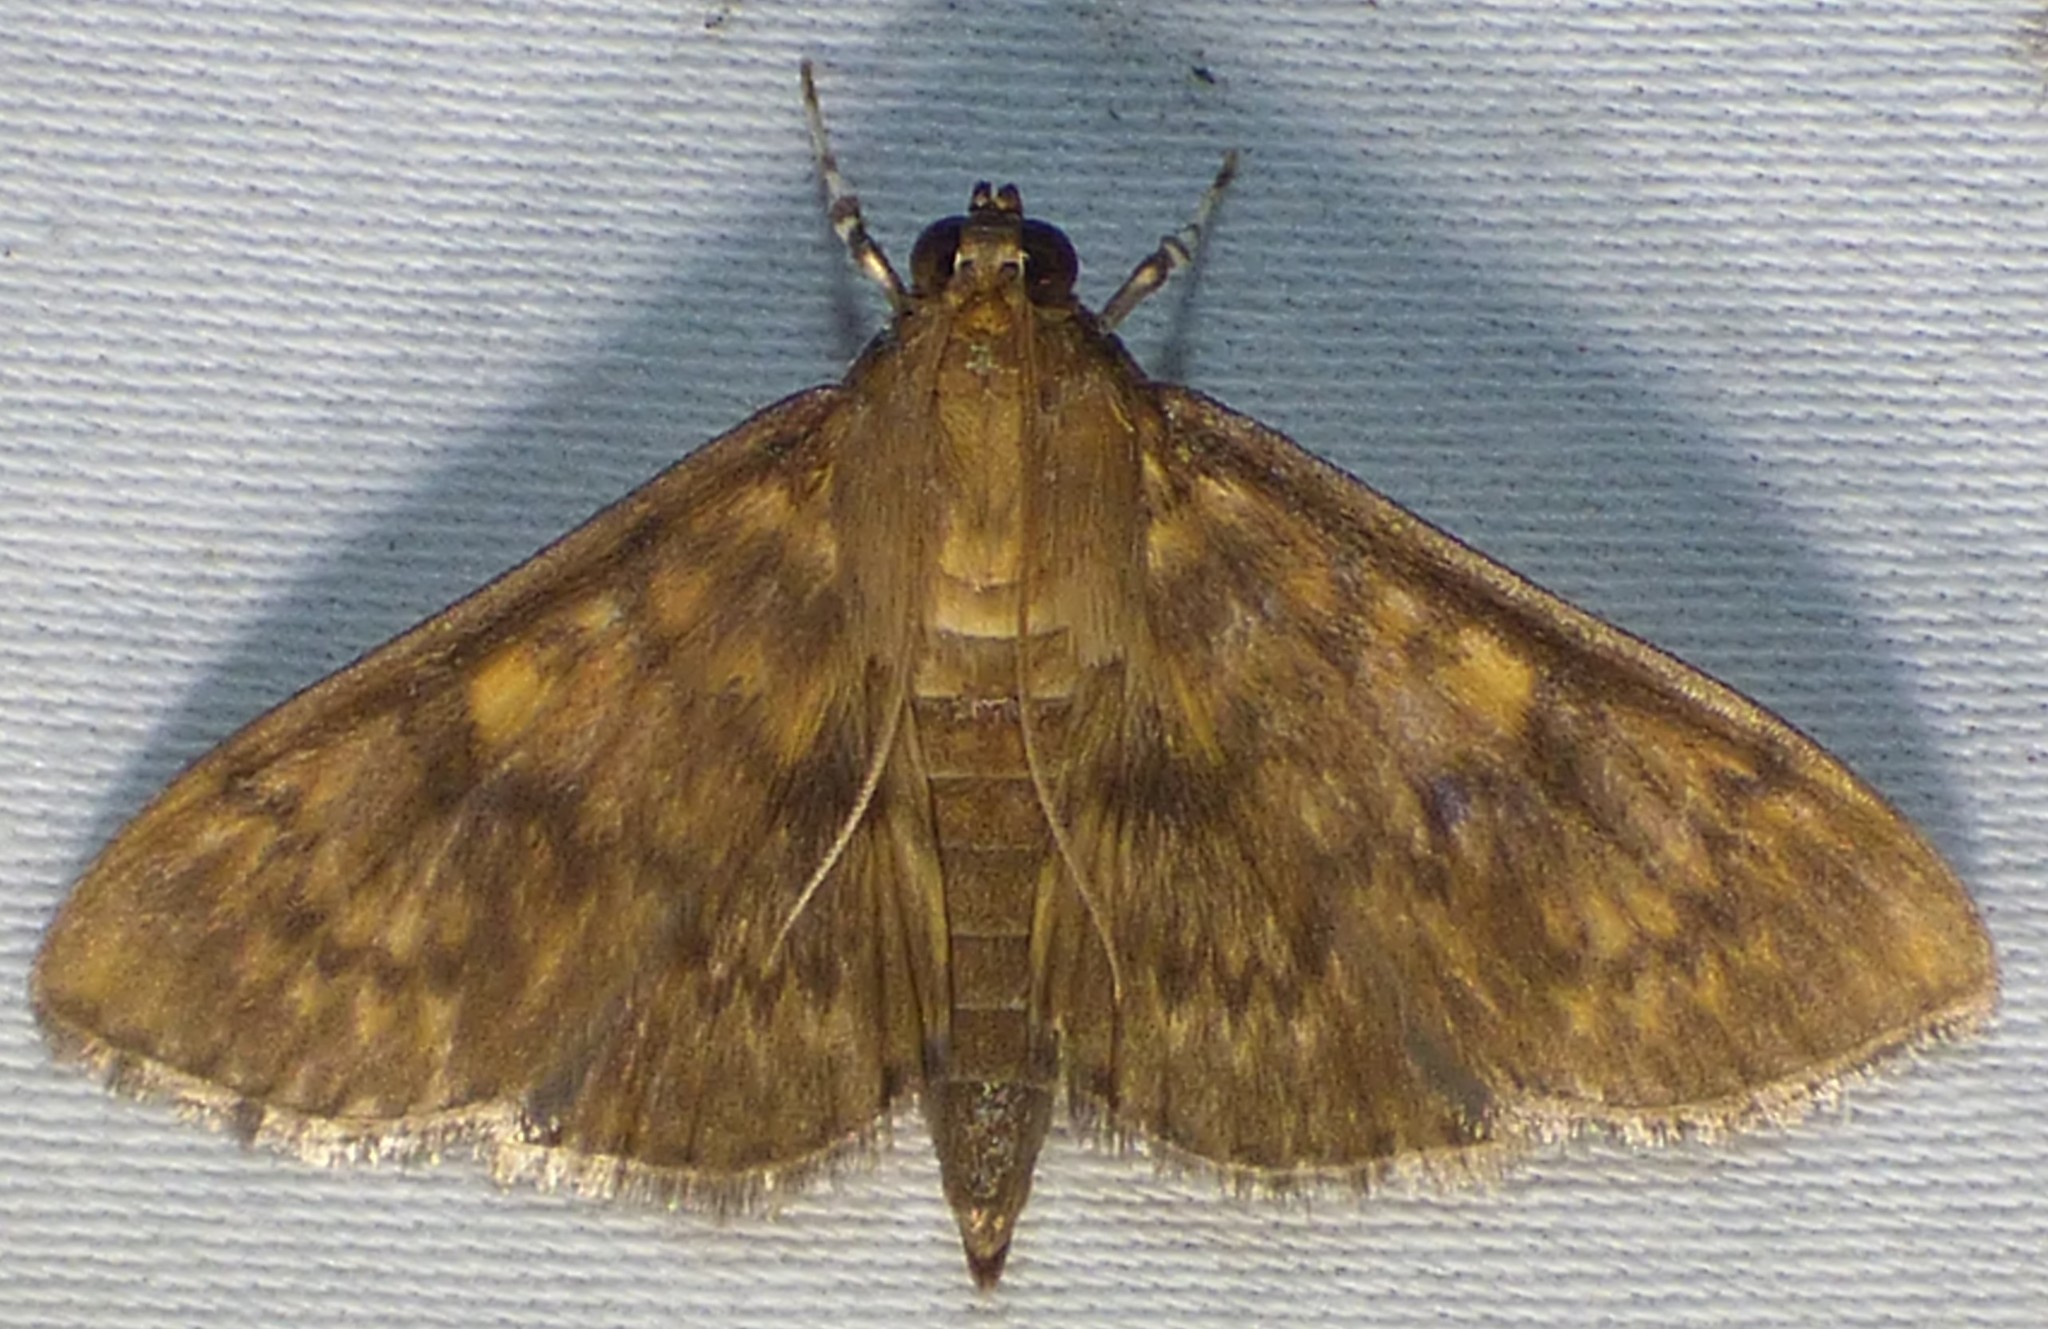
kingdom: Animalia
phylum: Arthropoda
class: Insecta
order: Lepidoptera
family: Crambidae
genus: Syllepte
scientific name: Syllepte obscuralis
